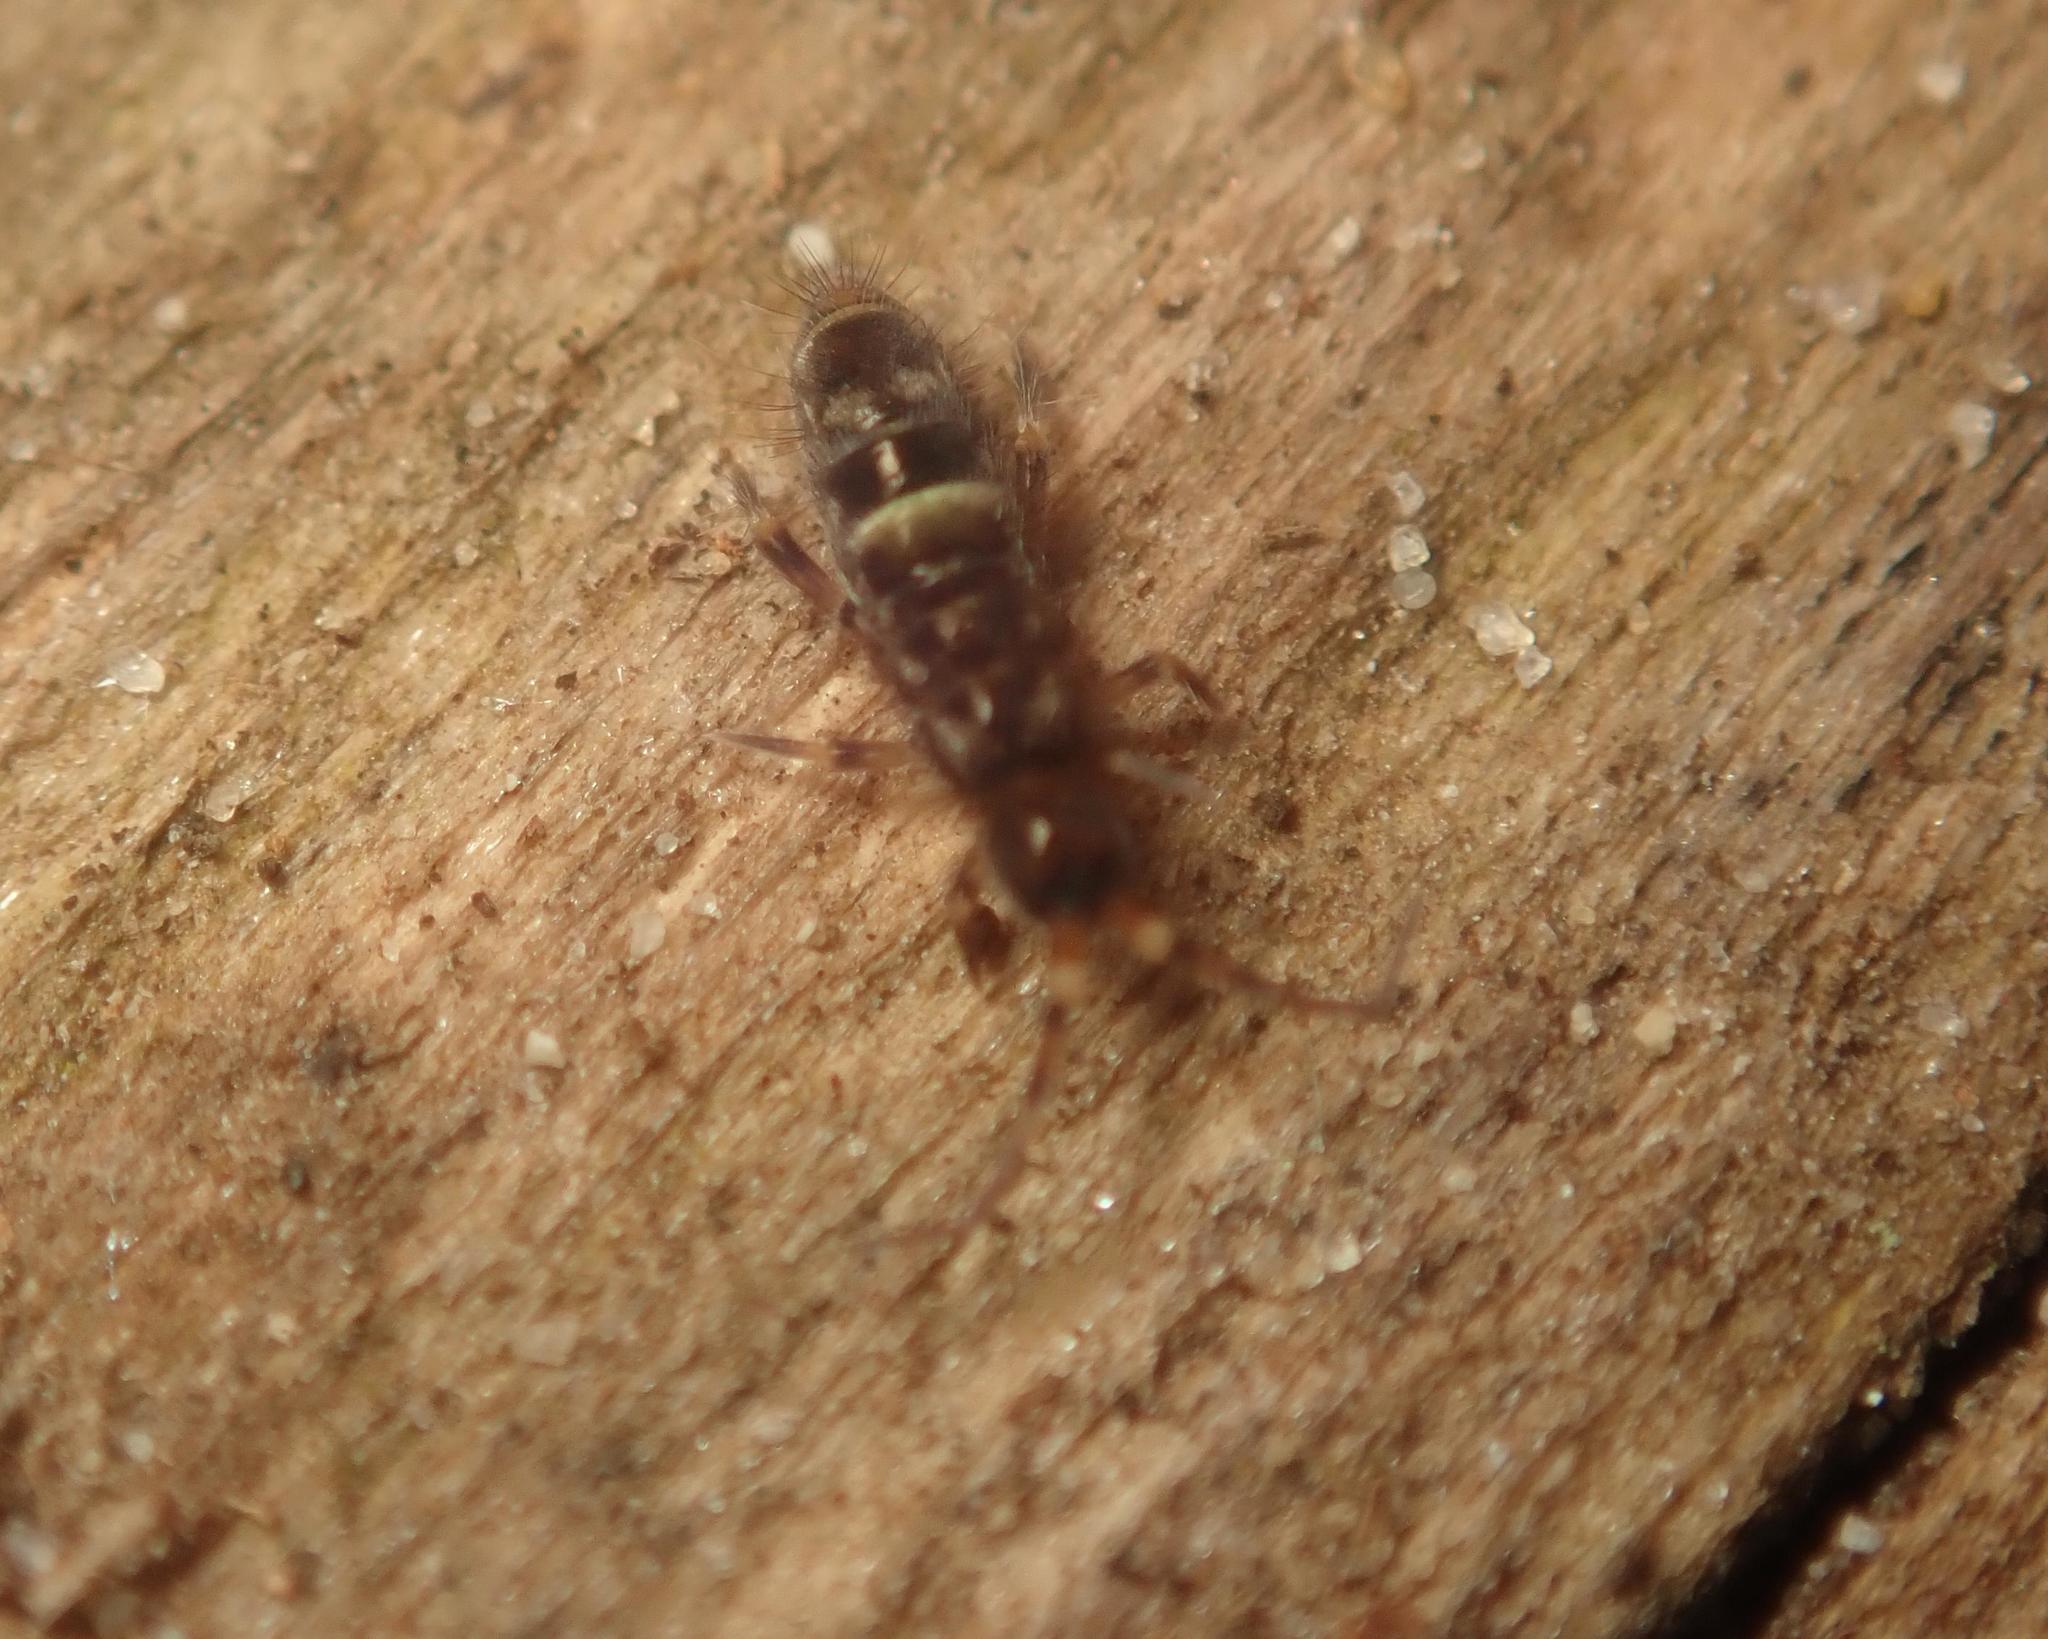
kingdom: Animalia
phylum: Arthropoda
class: Collembola
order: Entomobryomorpha
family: Orchesellidae
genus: Orchesella
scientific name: Orchesella cincta
